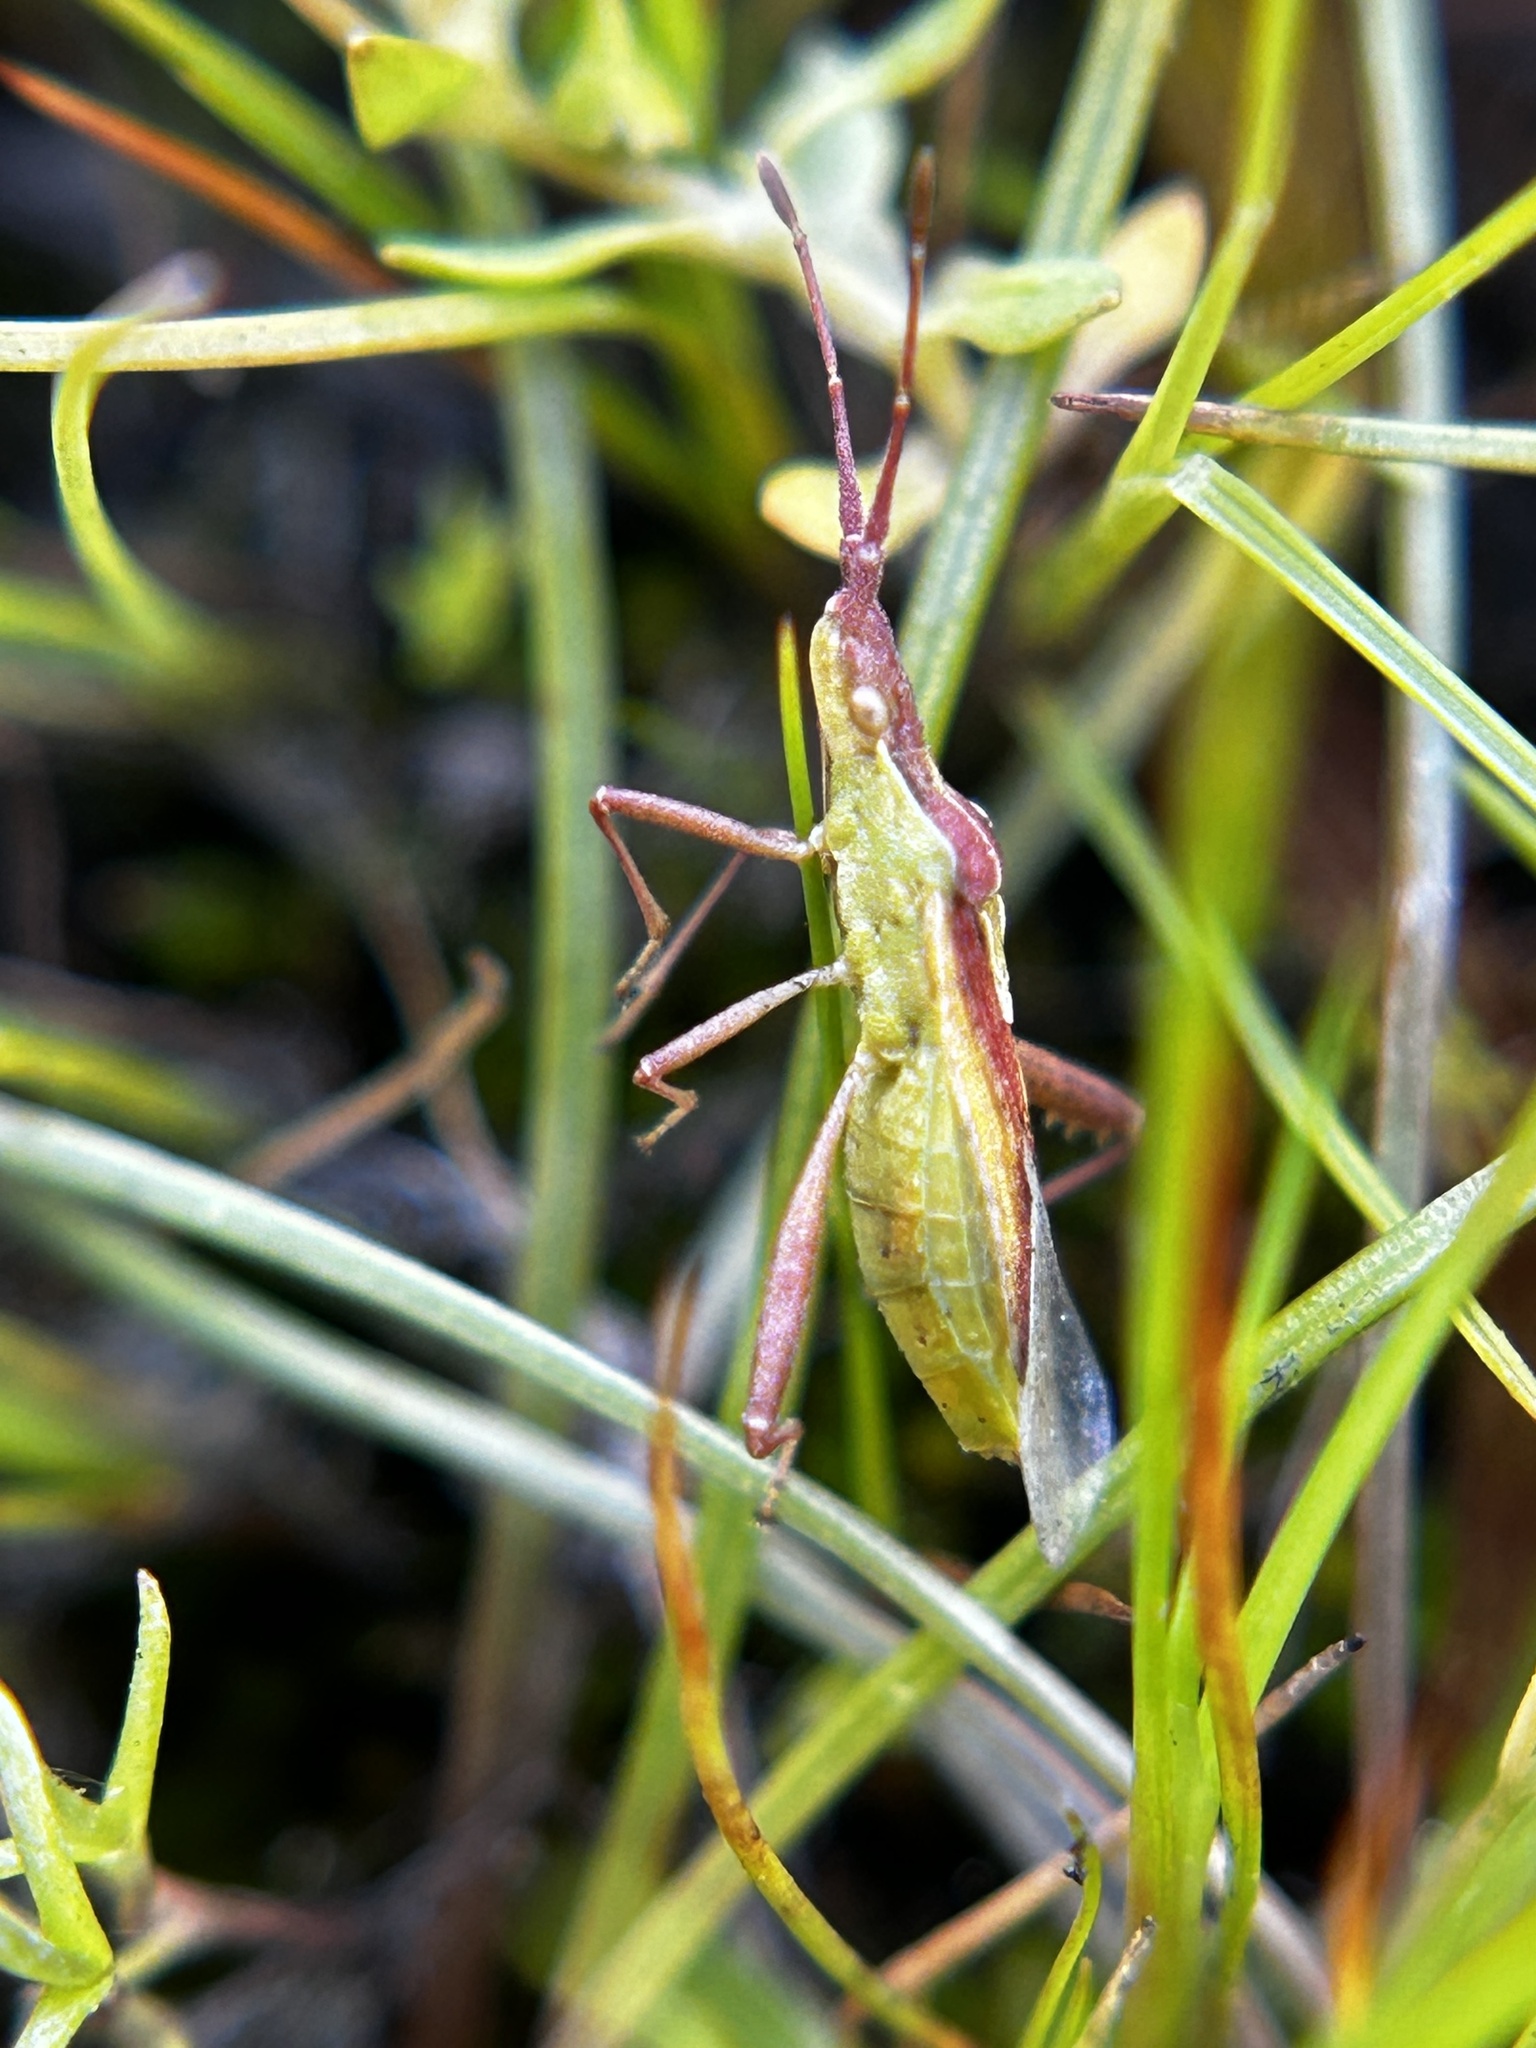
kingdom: Animalia
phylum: Arthropoda
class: Insecta
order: Hemiptera
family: Rhopalidae
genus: Harmostes
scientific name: Harmostes reflexulus
